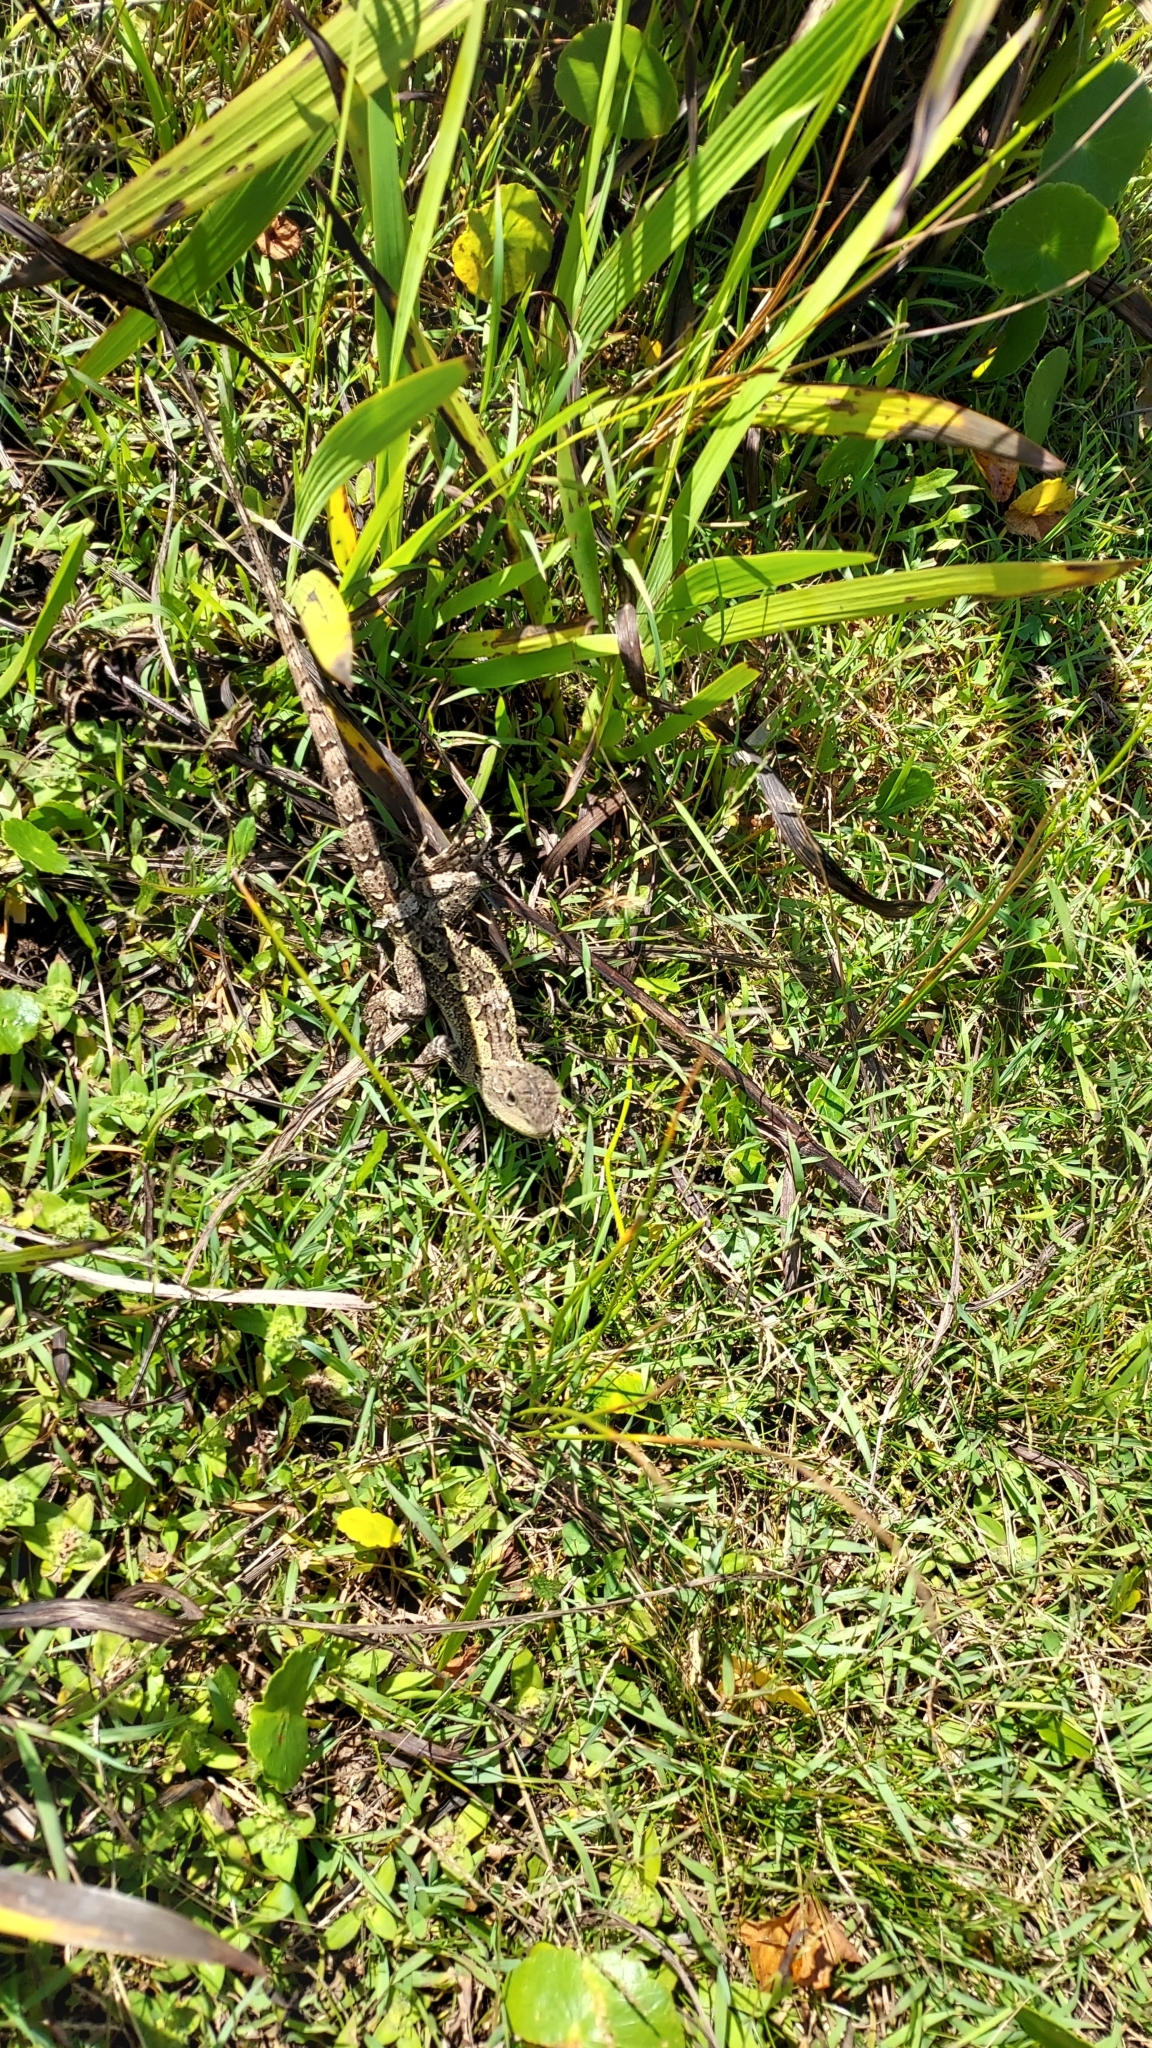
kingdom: Animalia
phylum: Chordata
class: Squamata
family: Agamidae
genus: Amphibolurus
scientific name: Amphibolurus muricatus
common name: Jacky lizard
